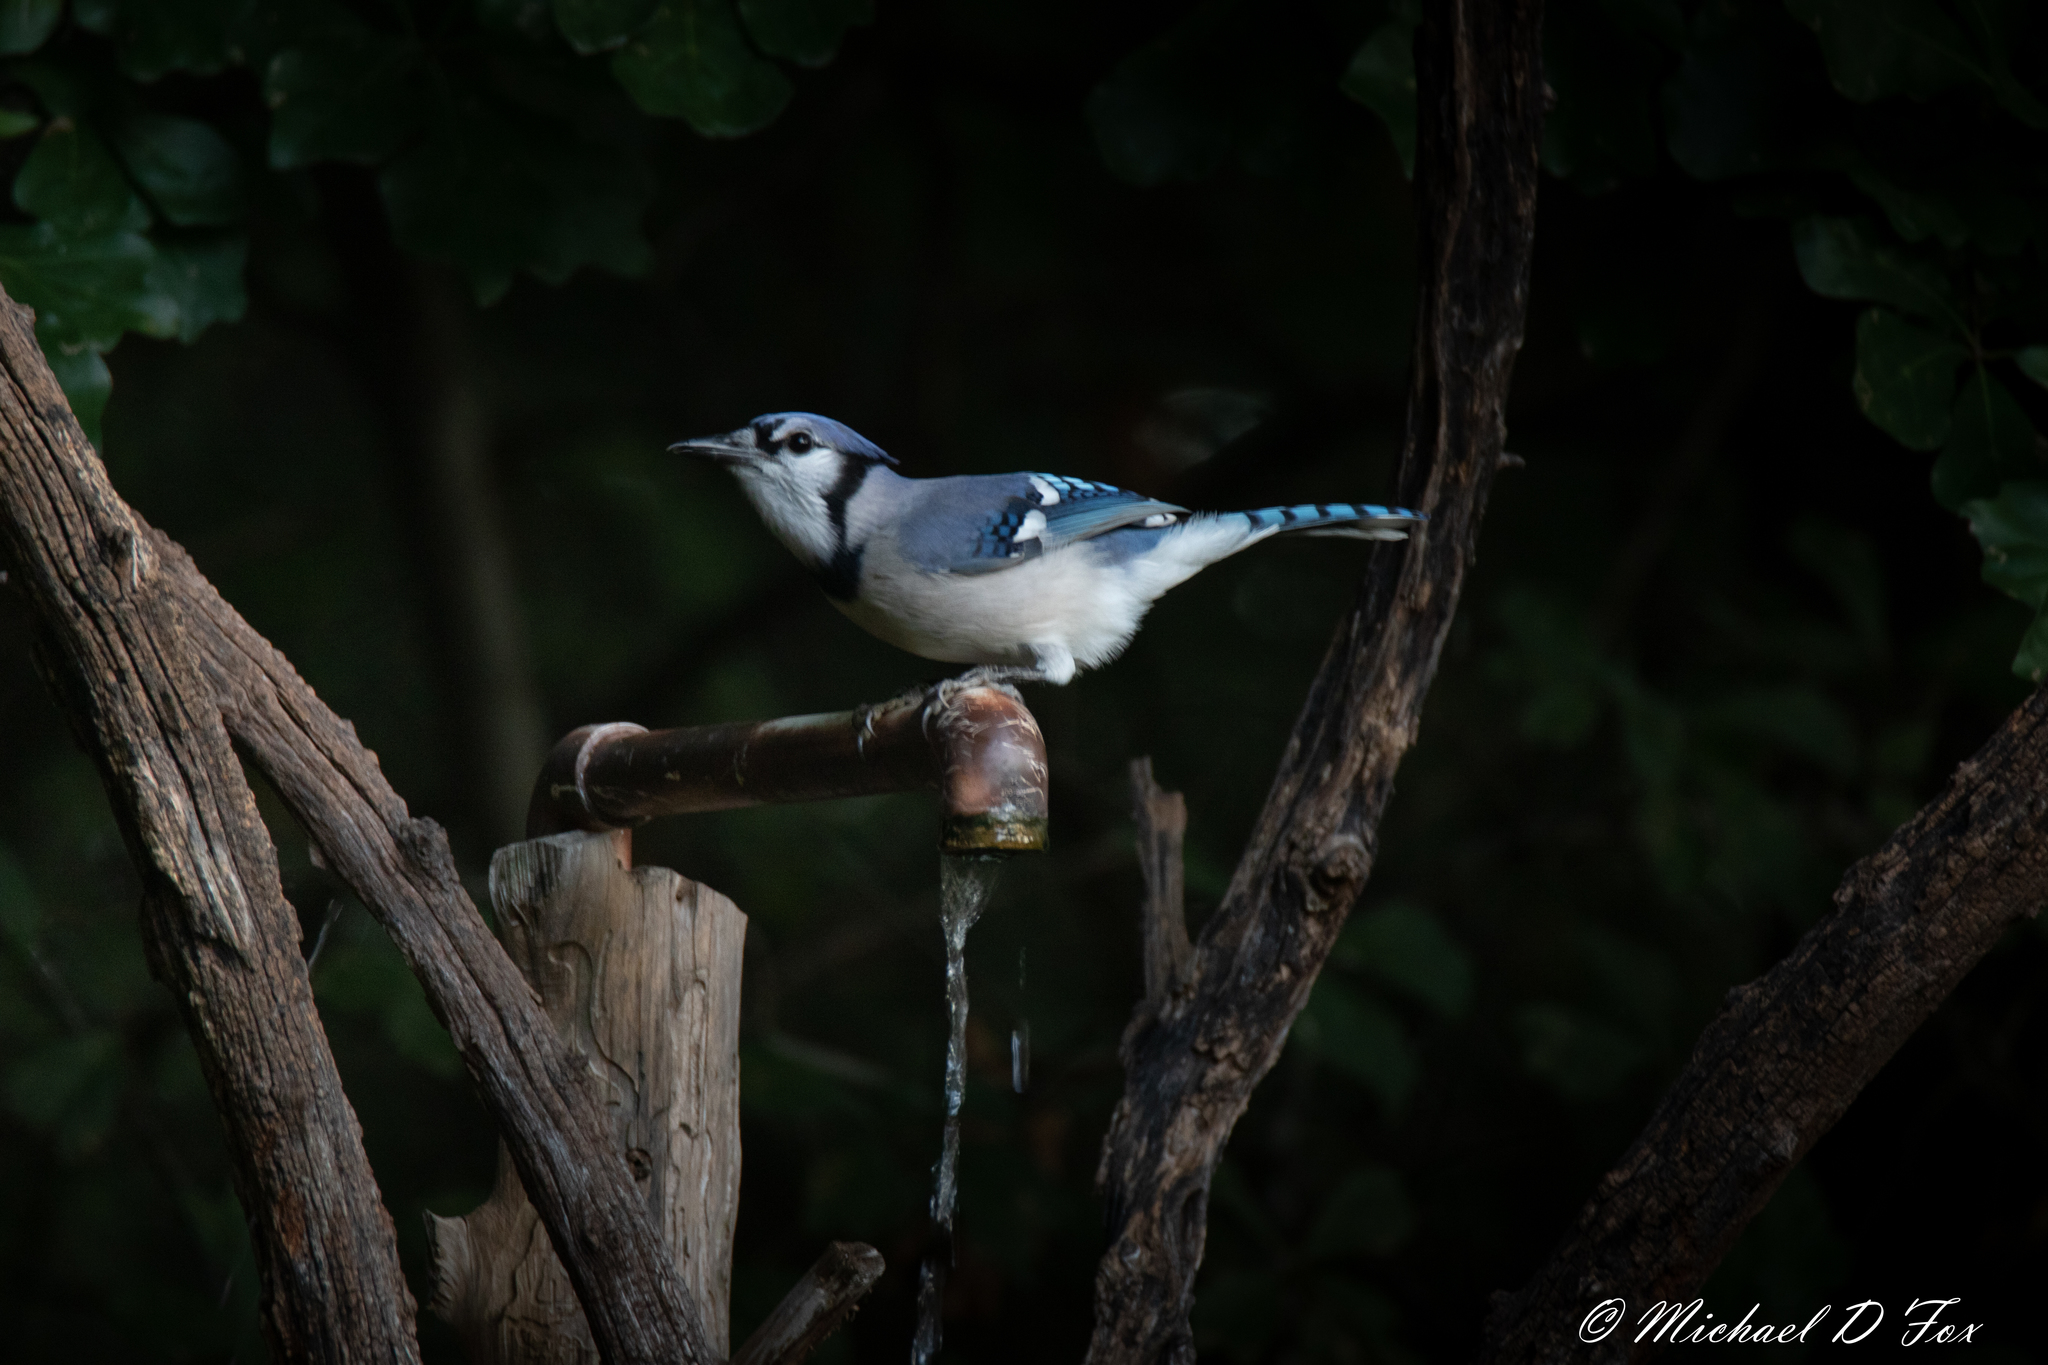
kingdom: Animalia
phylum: Chordata
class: Aves
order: Passeriformes
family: Corvidae
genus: Cyanocitta
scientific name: Cyanocitta cristata
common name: Blue jay
